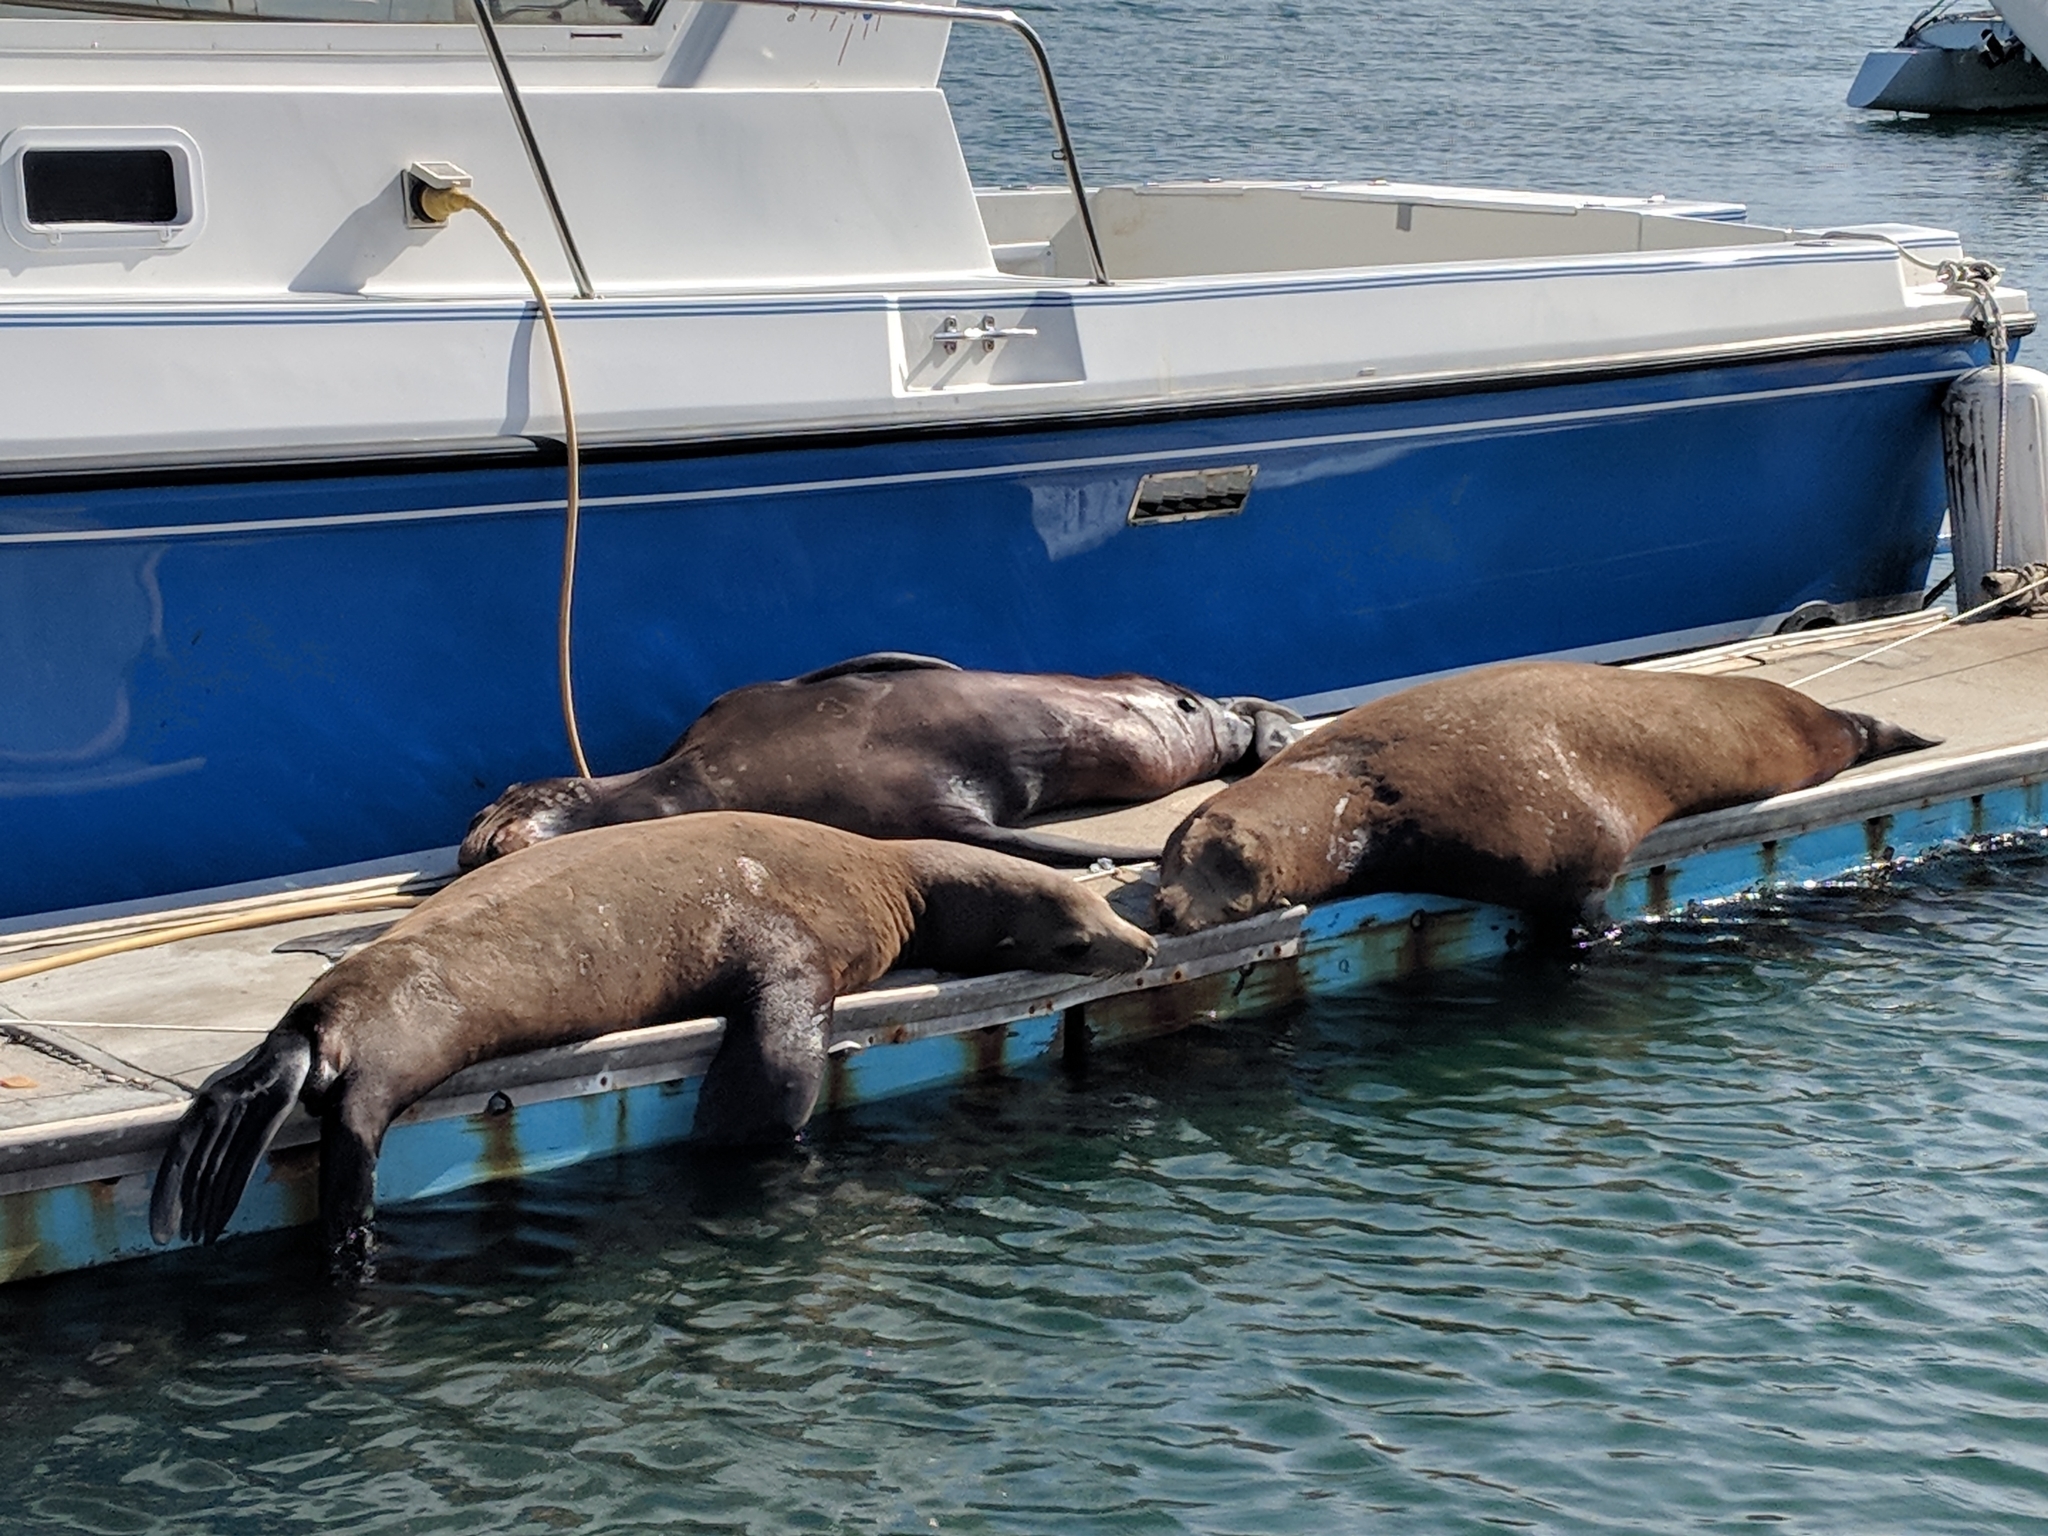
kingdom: Animalia
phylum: Chordata
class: Mammalia
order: Carnivora
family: Otariidae
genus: Zalophus
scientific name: Zalophus californianus
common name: California sea lion
